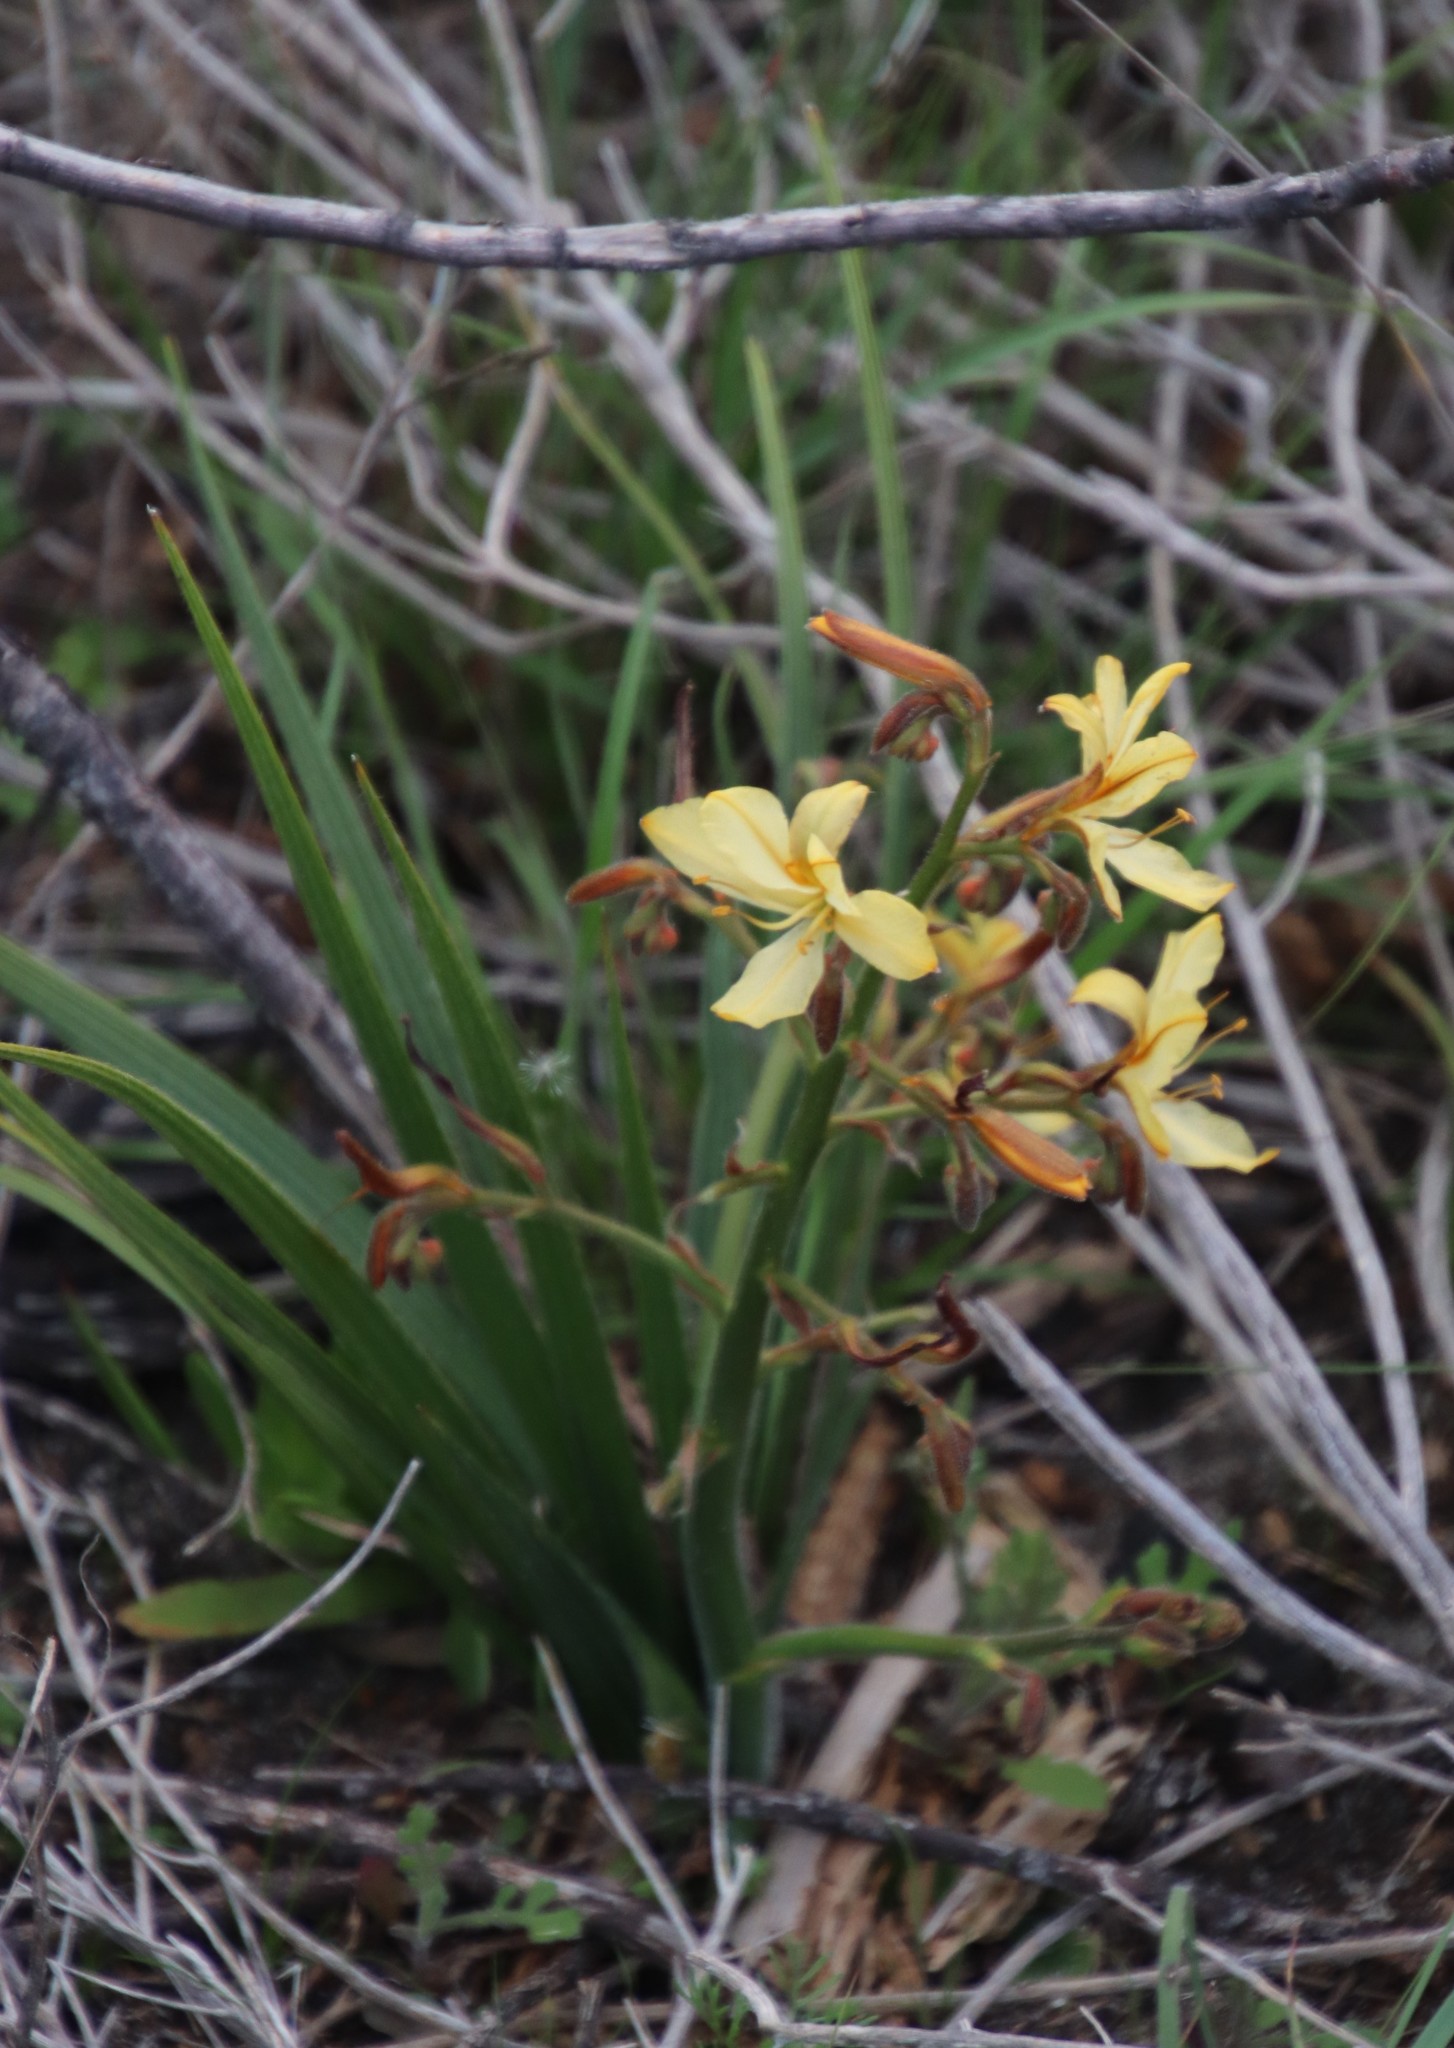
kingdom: Plantae
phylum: Tracheophyta
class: Liliopsida
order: Commelinales
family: Haemodoraceae
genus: Wachendorfia
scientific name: Wachendorfia paniculata
